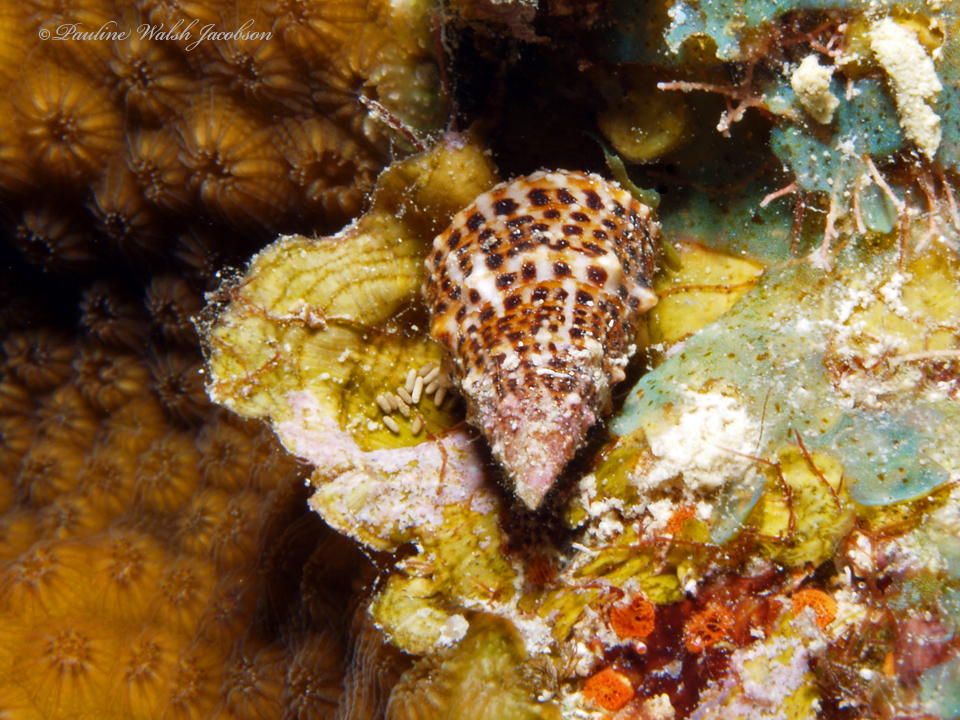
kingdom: Animalia
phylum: Mollusca
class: Gastropoda
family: Cerithiidae
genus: Cerithium
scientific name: Cerithium litteratum
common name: Stocky cerith
